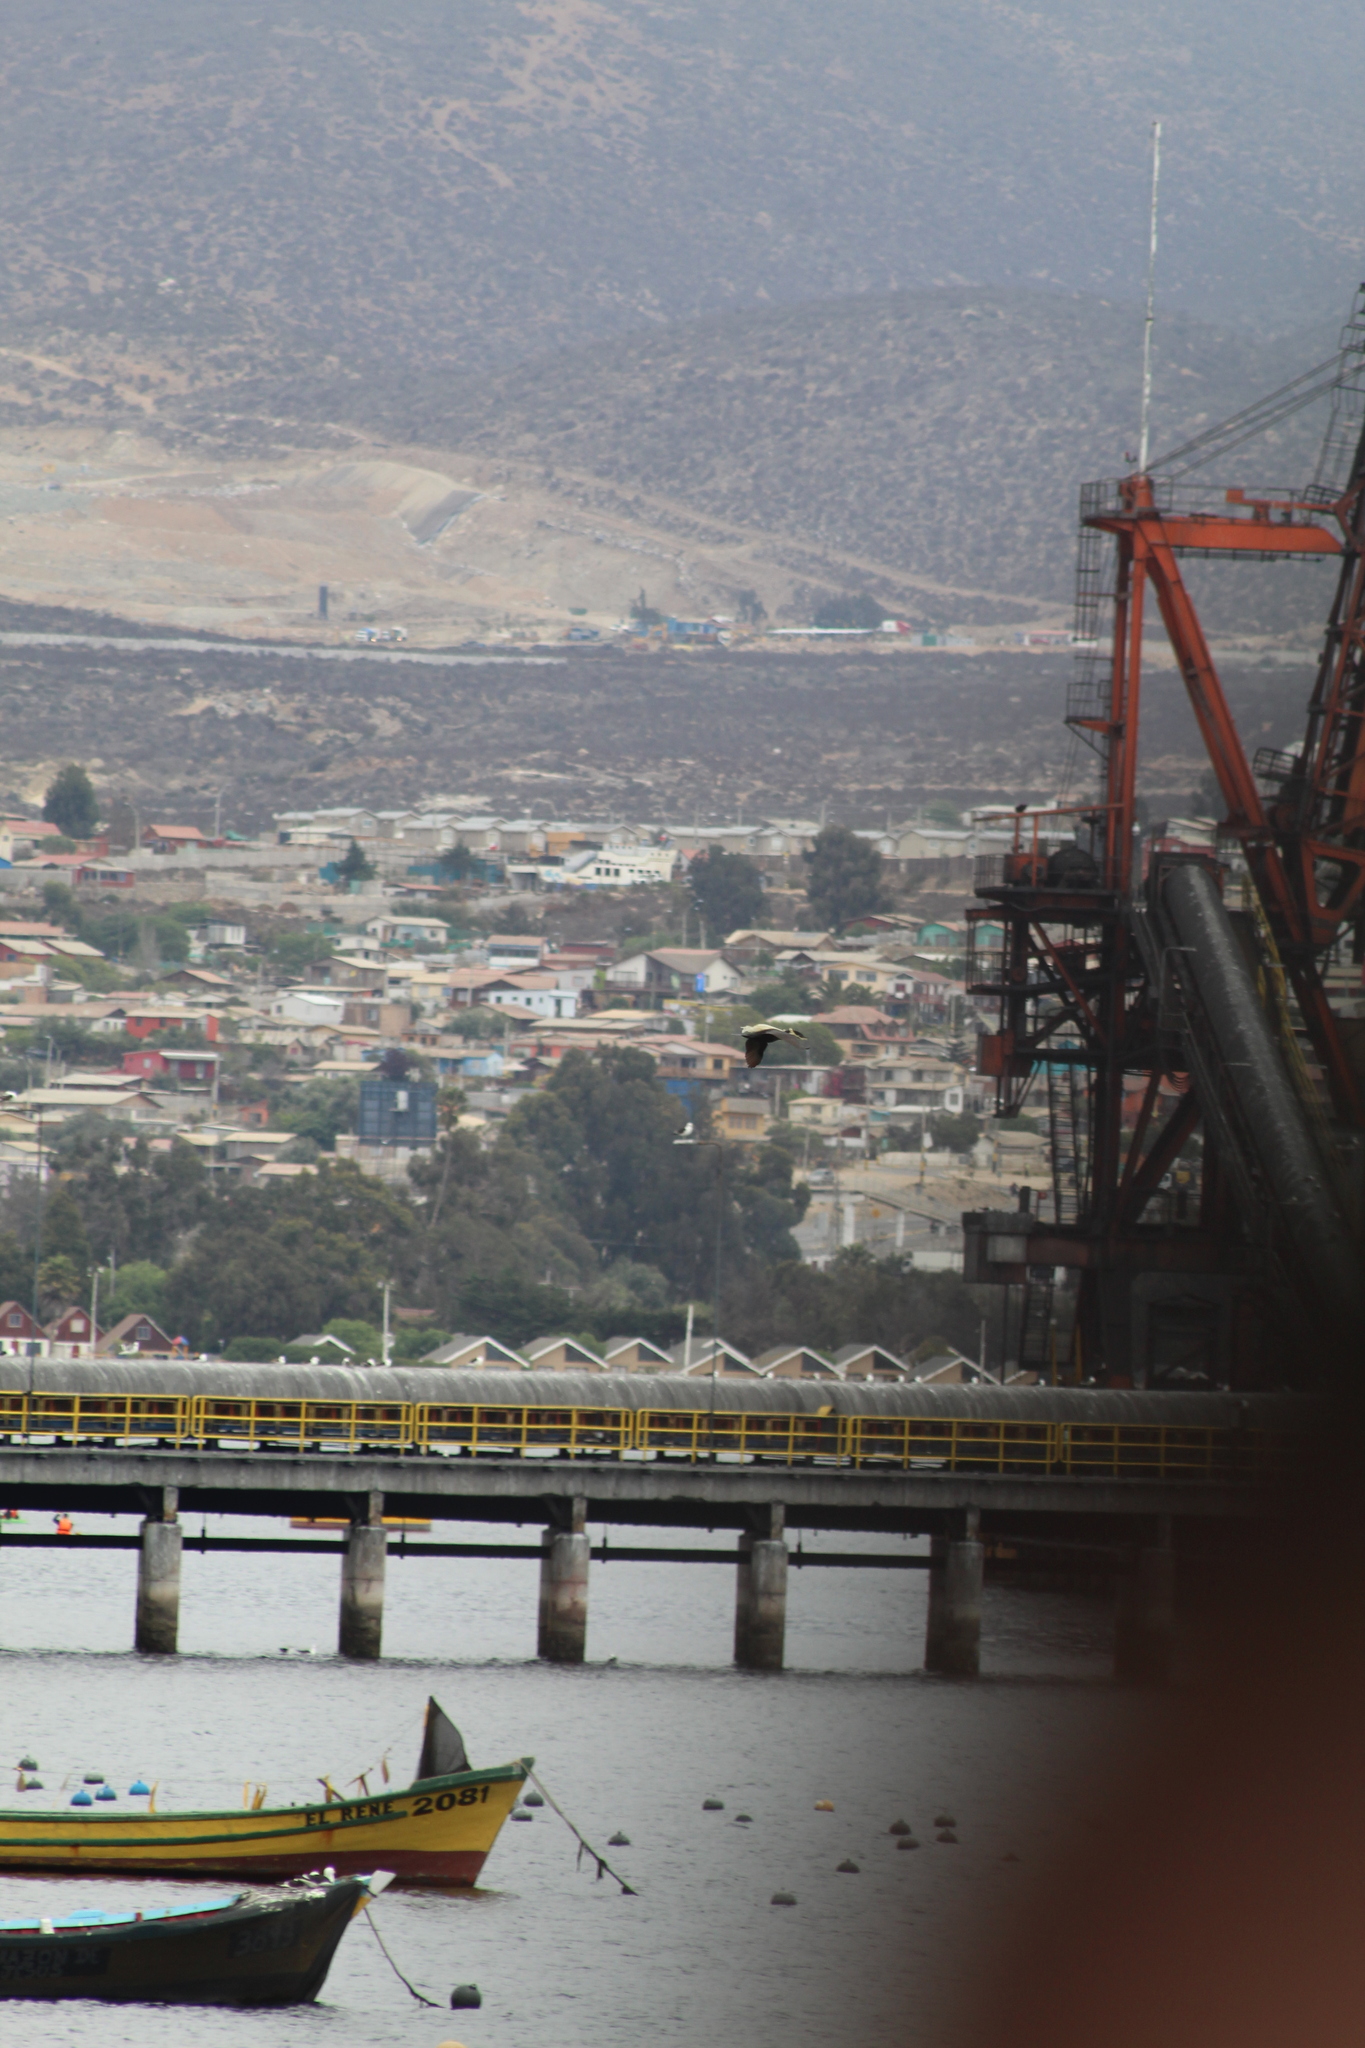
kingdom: Animalia
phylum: Chordata
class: Aves
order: Suliformes
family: Phalacrocoracidae
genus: Phalacrocorax
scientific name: Phalacrocorax brasilianus
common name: Neotropic cormorant
